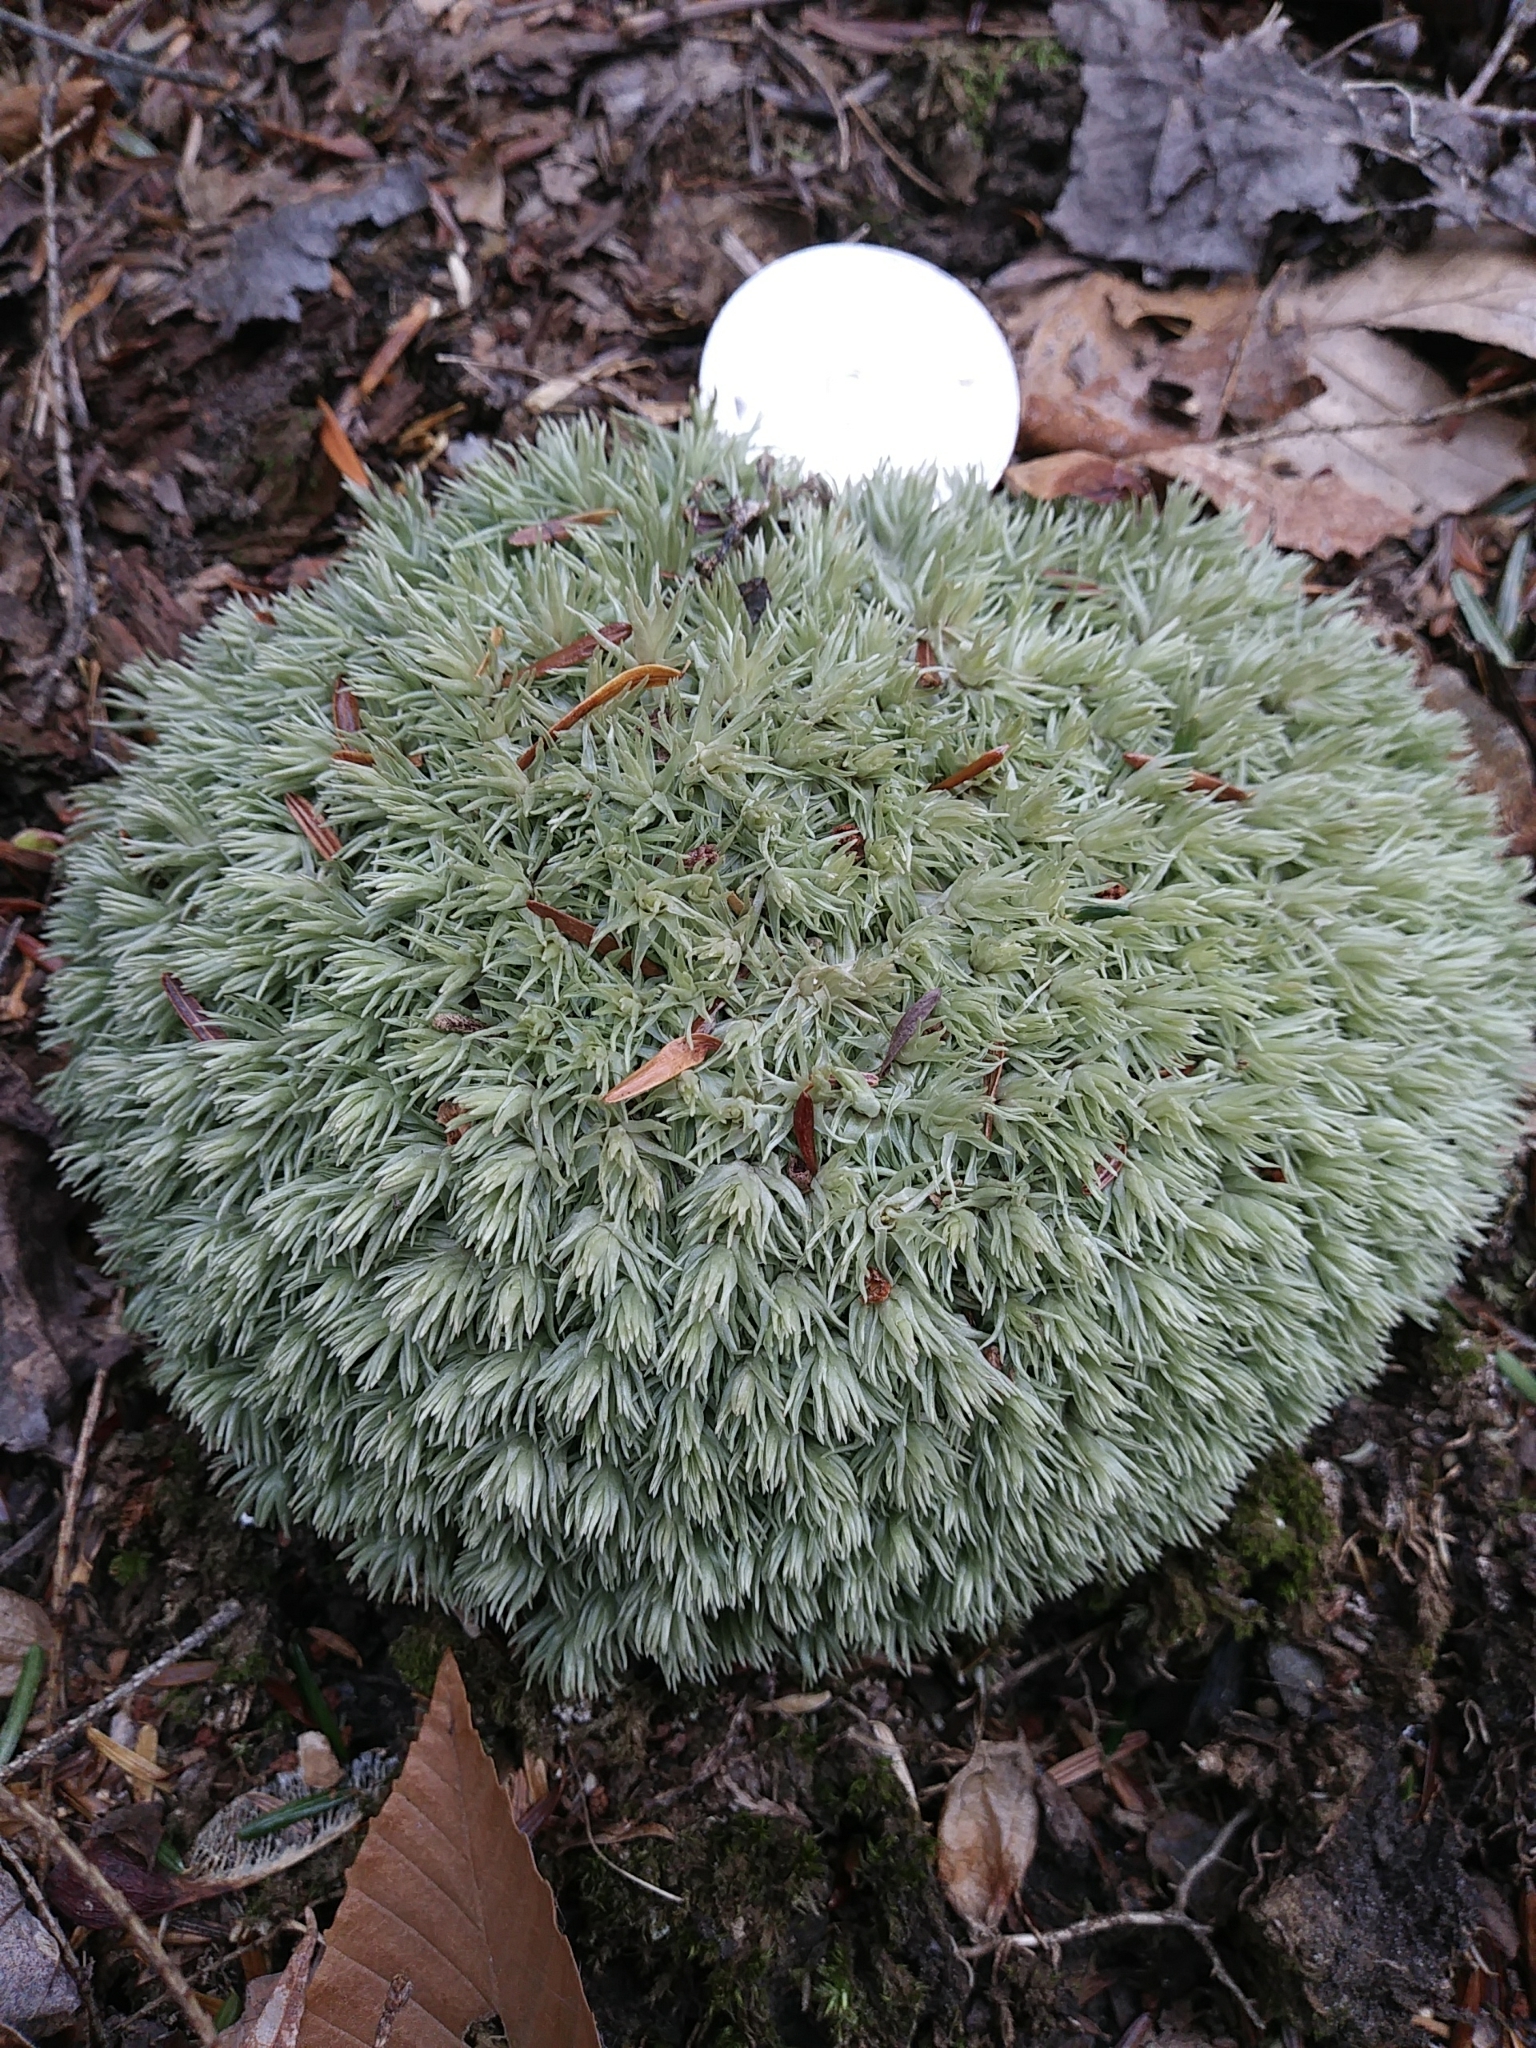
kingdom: Plantae
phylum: Bryophyta
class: Bryopsida
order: Dicranales
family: Leucobryaceae
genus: Leucobryum
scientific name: Leucobryum glaucum
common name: Large white-moss
